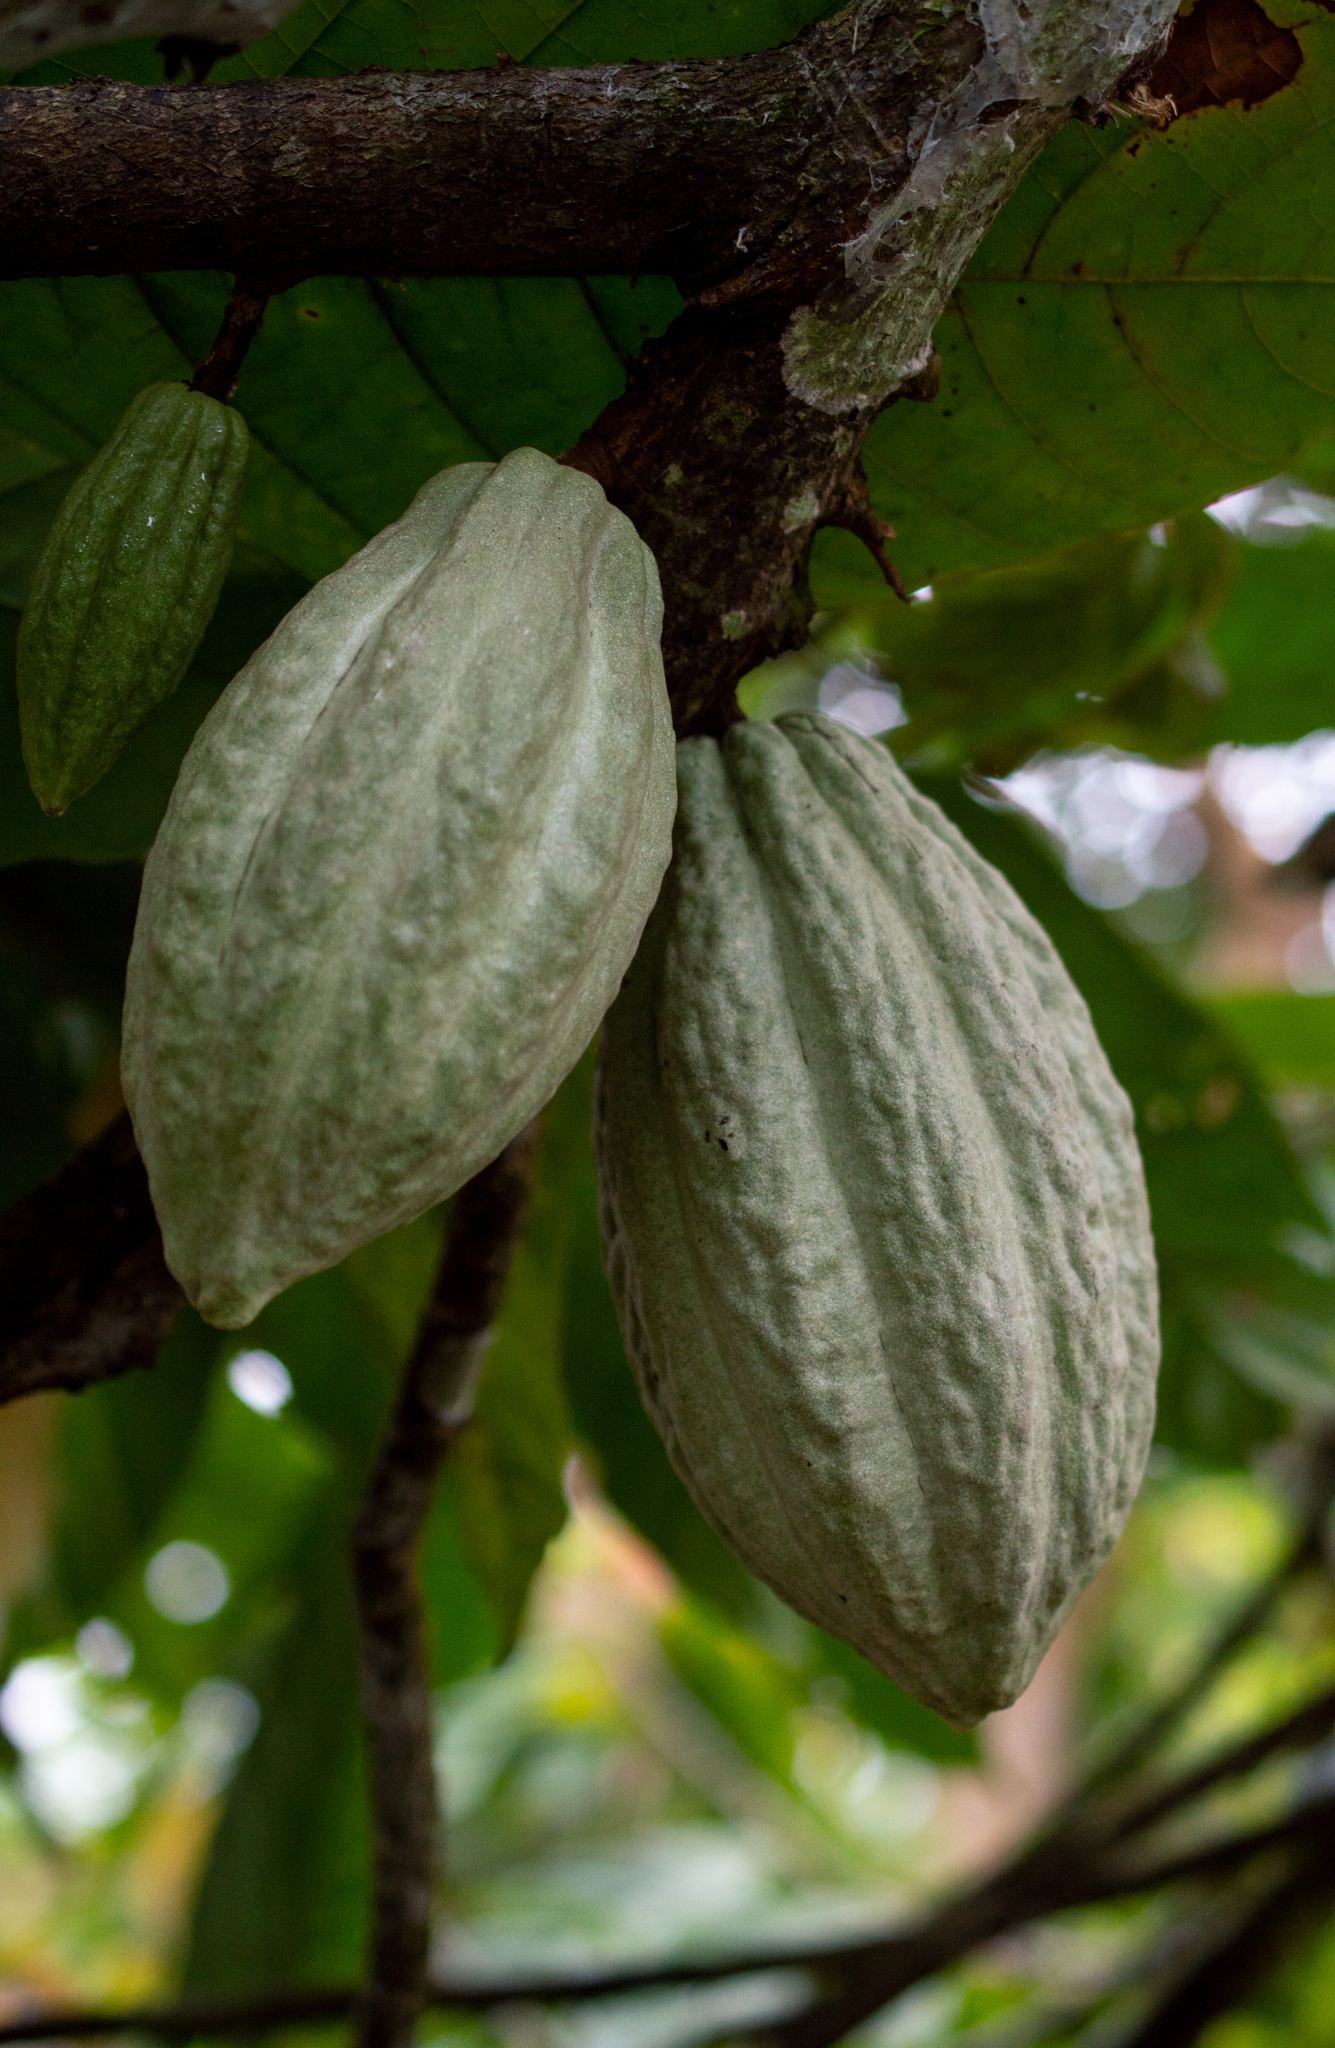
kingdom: Plantae
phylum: Tracheophyta
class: Magnoliopsida
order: Malvales
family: Malvaceae
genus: Theobroma
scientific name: Theobroma cacao
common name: Cocoa
